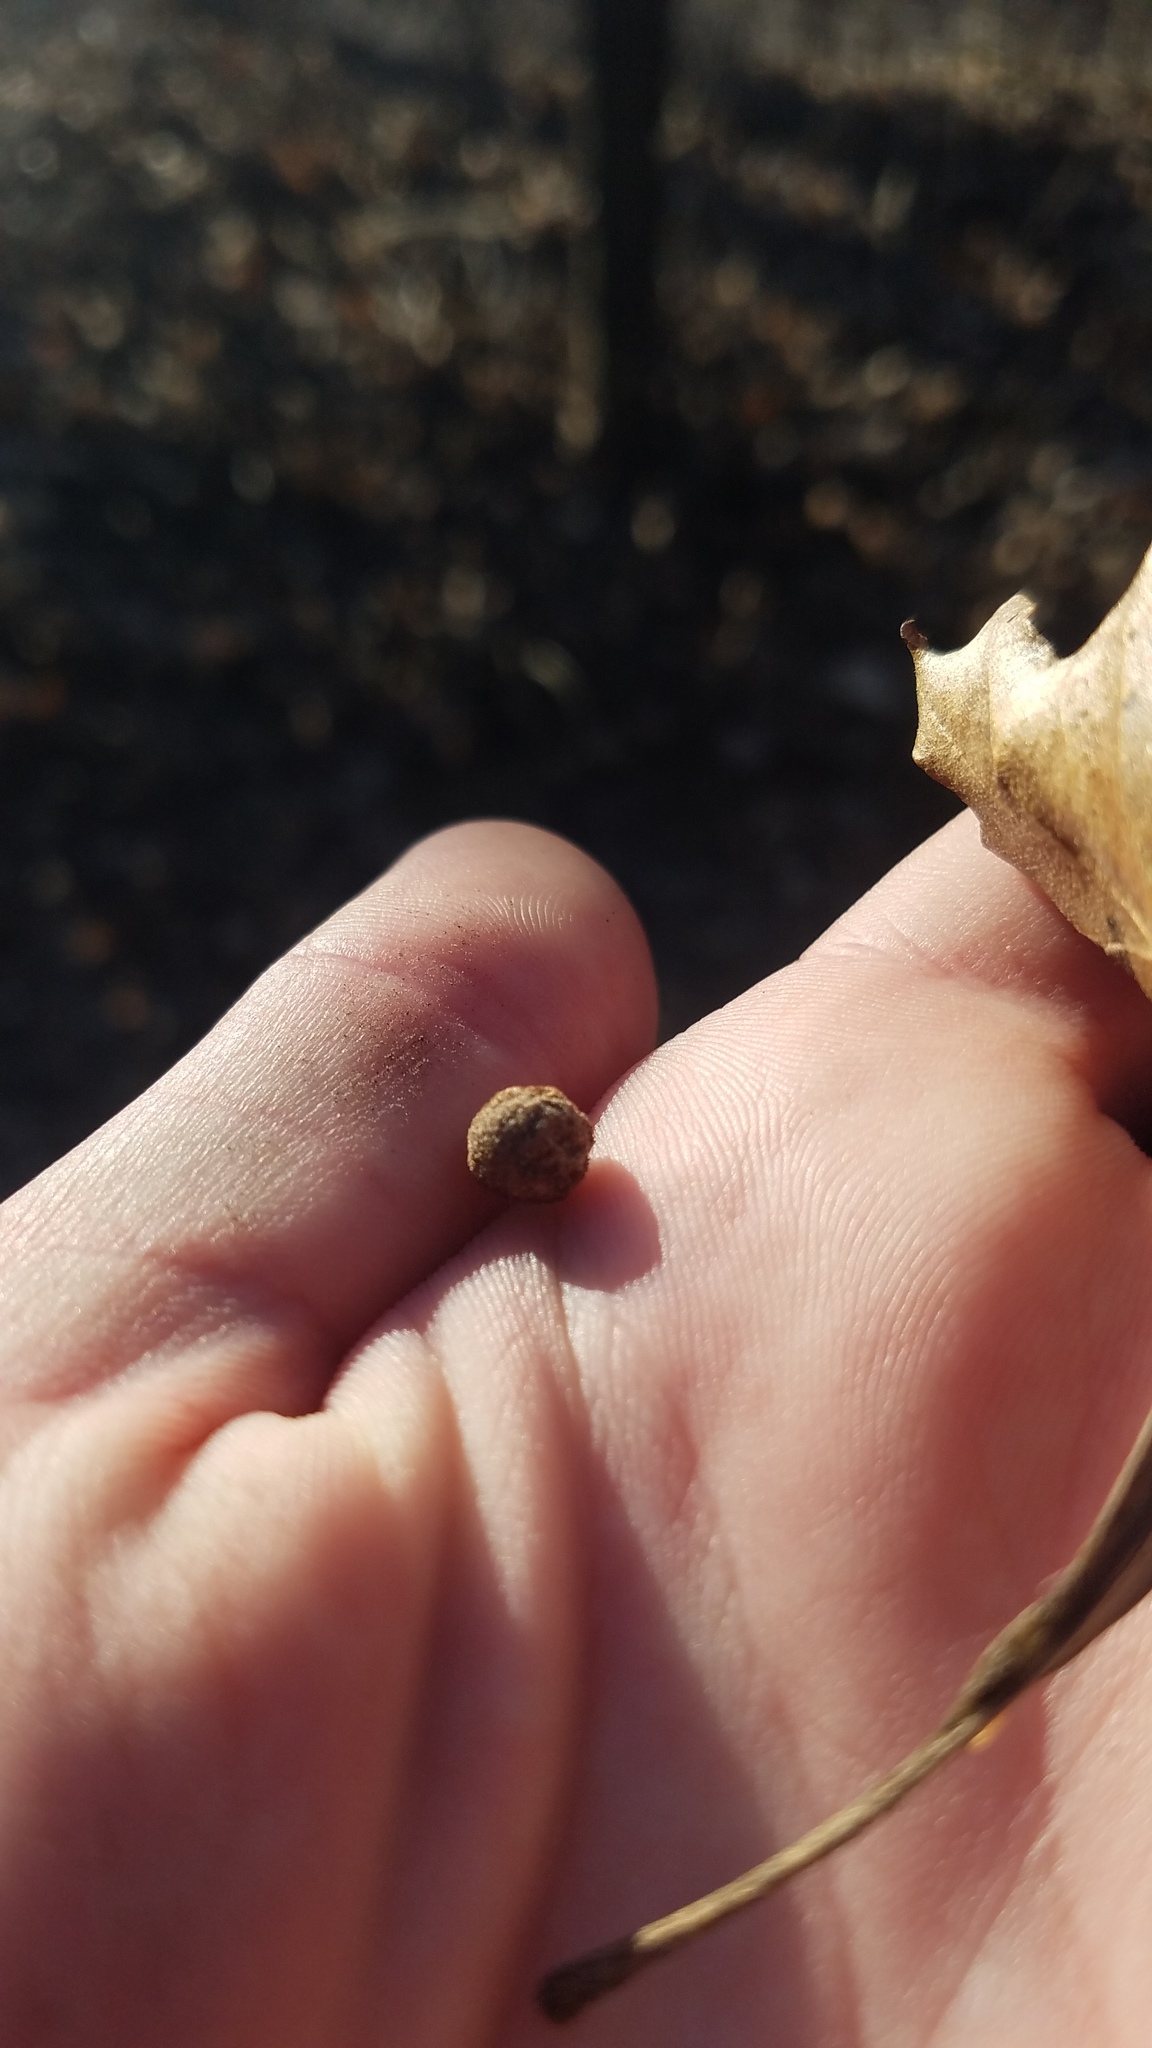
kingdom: Animalia
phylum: Arthropoda
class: Insecta
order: Hymenoptera
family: Cynipidae
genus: Philonix
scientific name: Philonix fulvicollis
